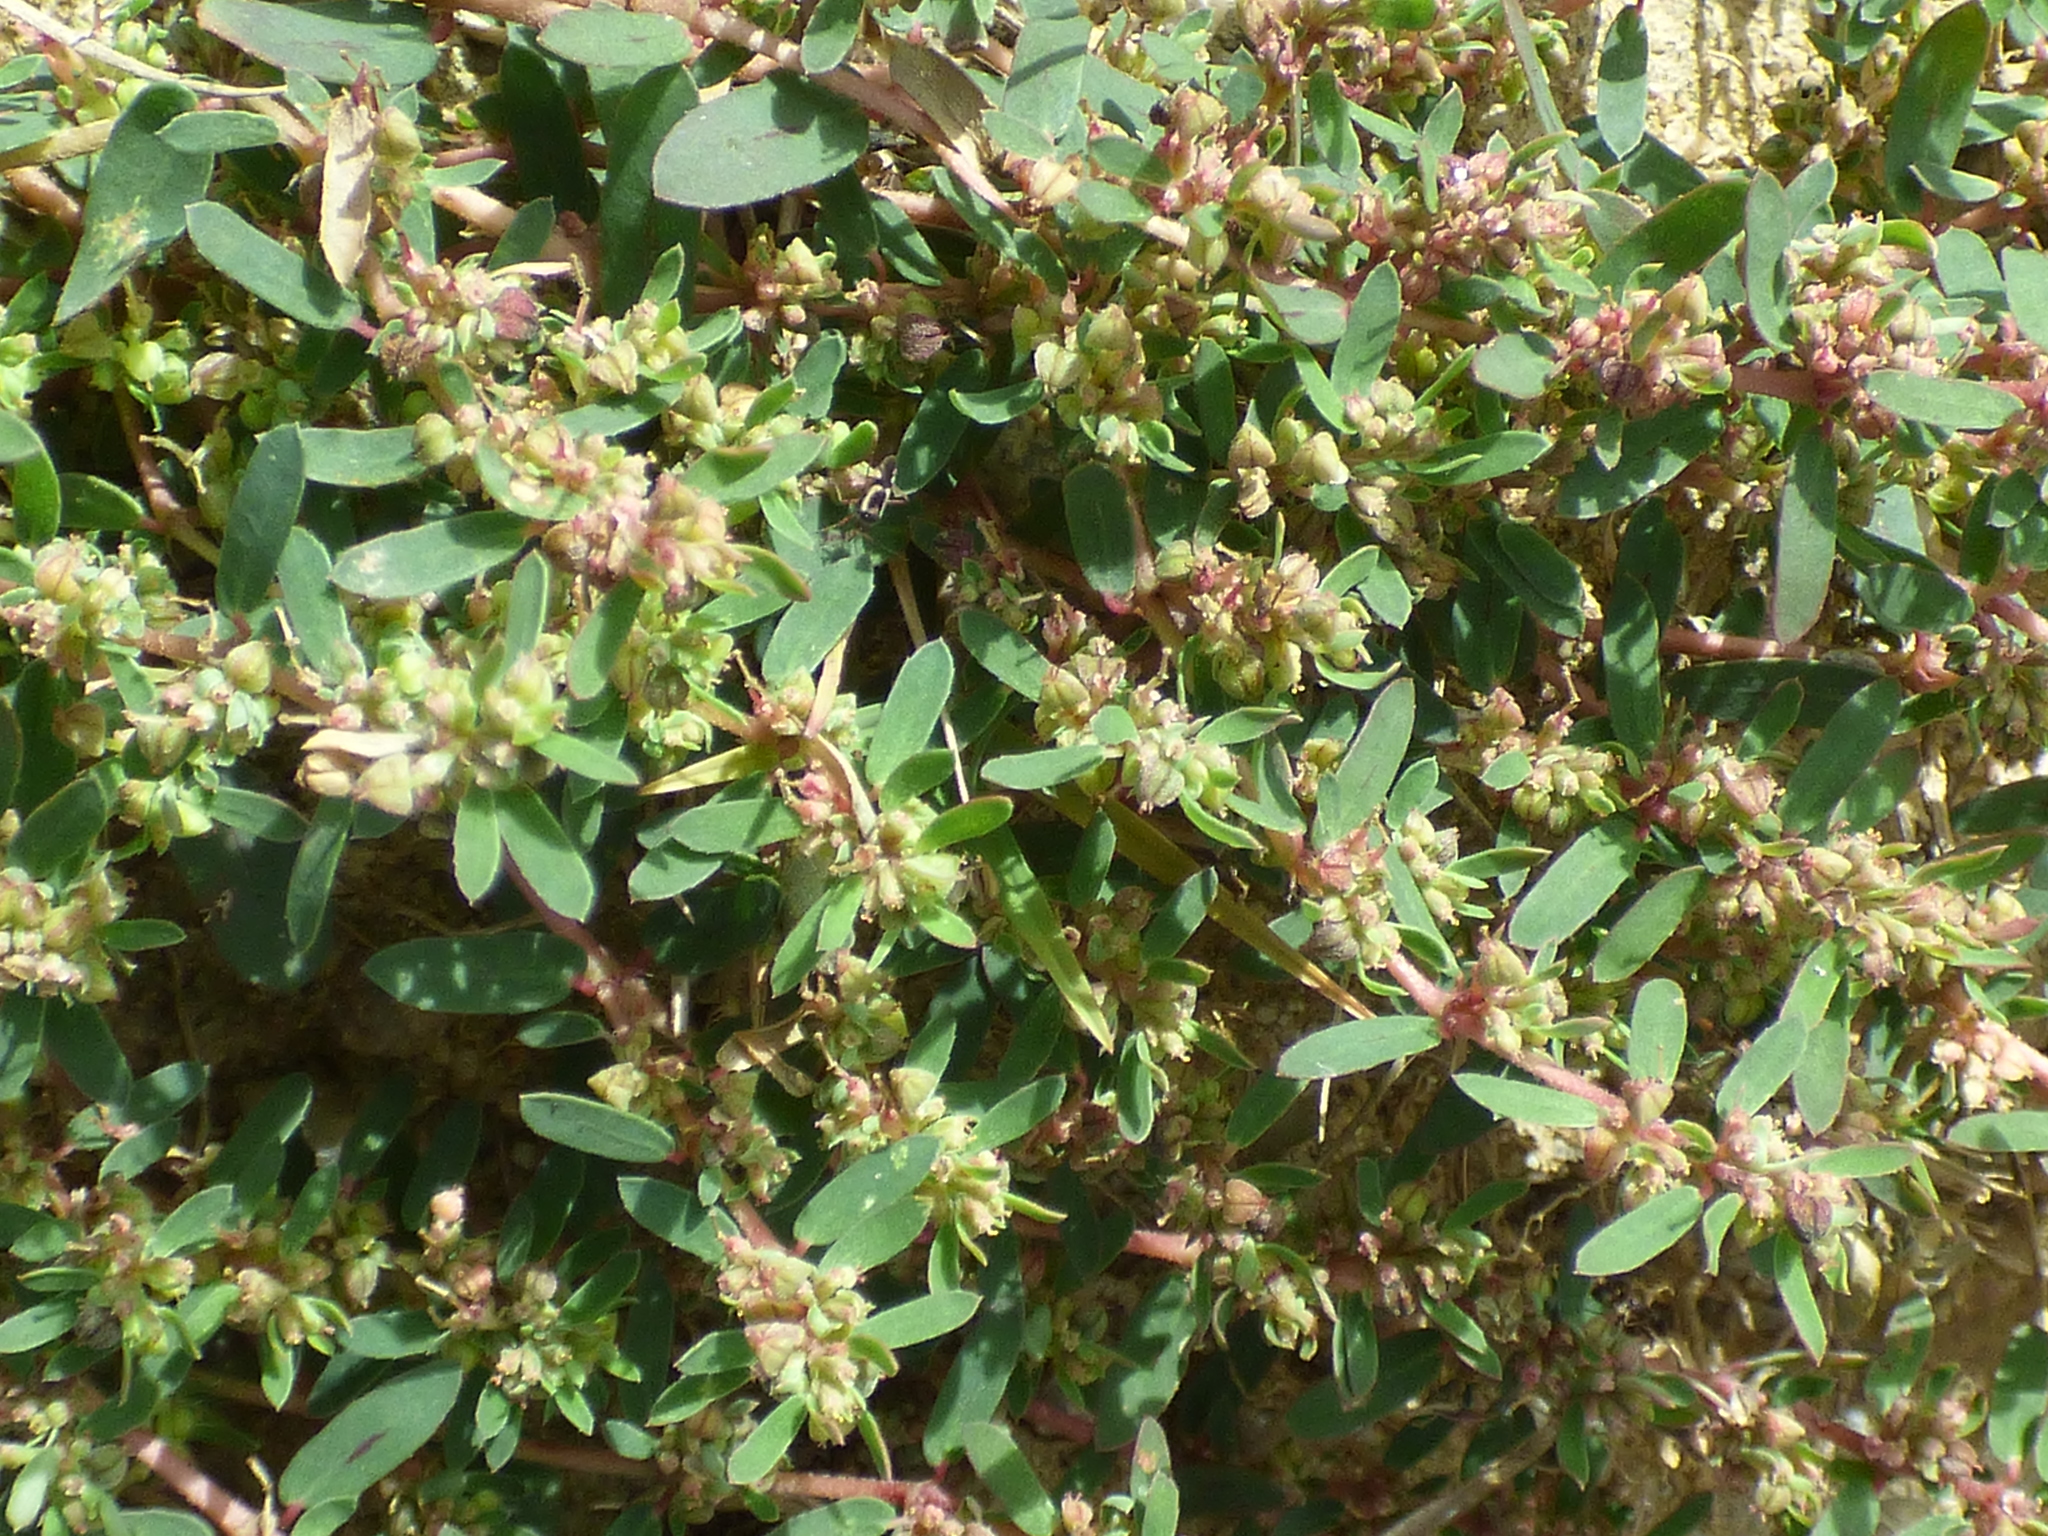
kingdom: Plantae
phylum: Tracheophyta
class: Magnoliopsida
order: Malpighiales
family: Euphorbiaceae
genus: Euphorbia
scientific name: Euphorbia maculata
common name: Spotted spurge
